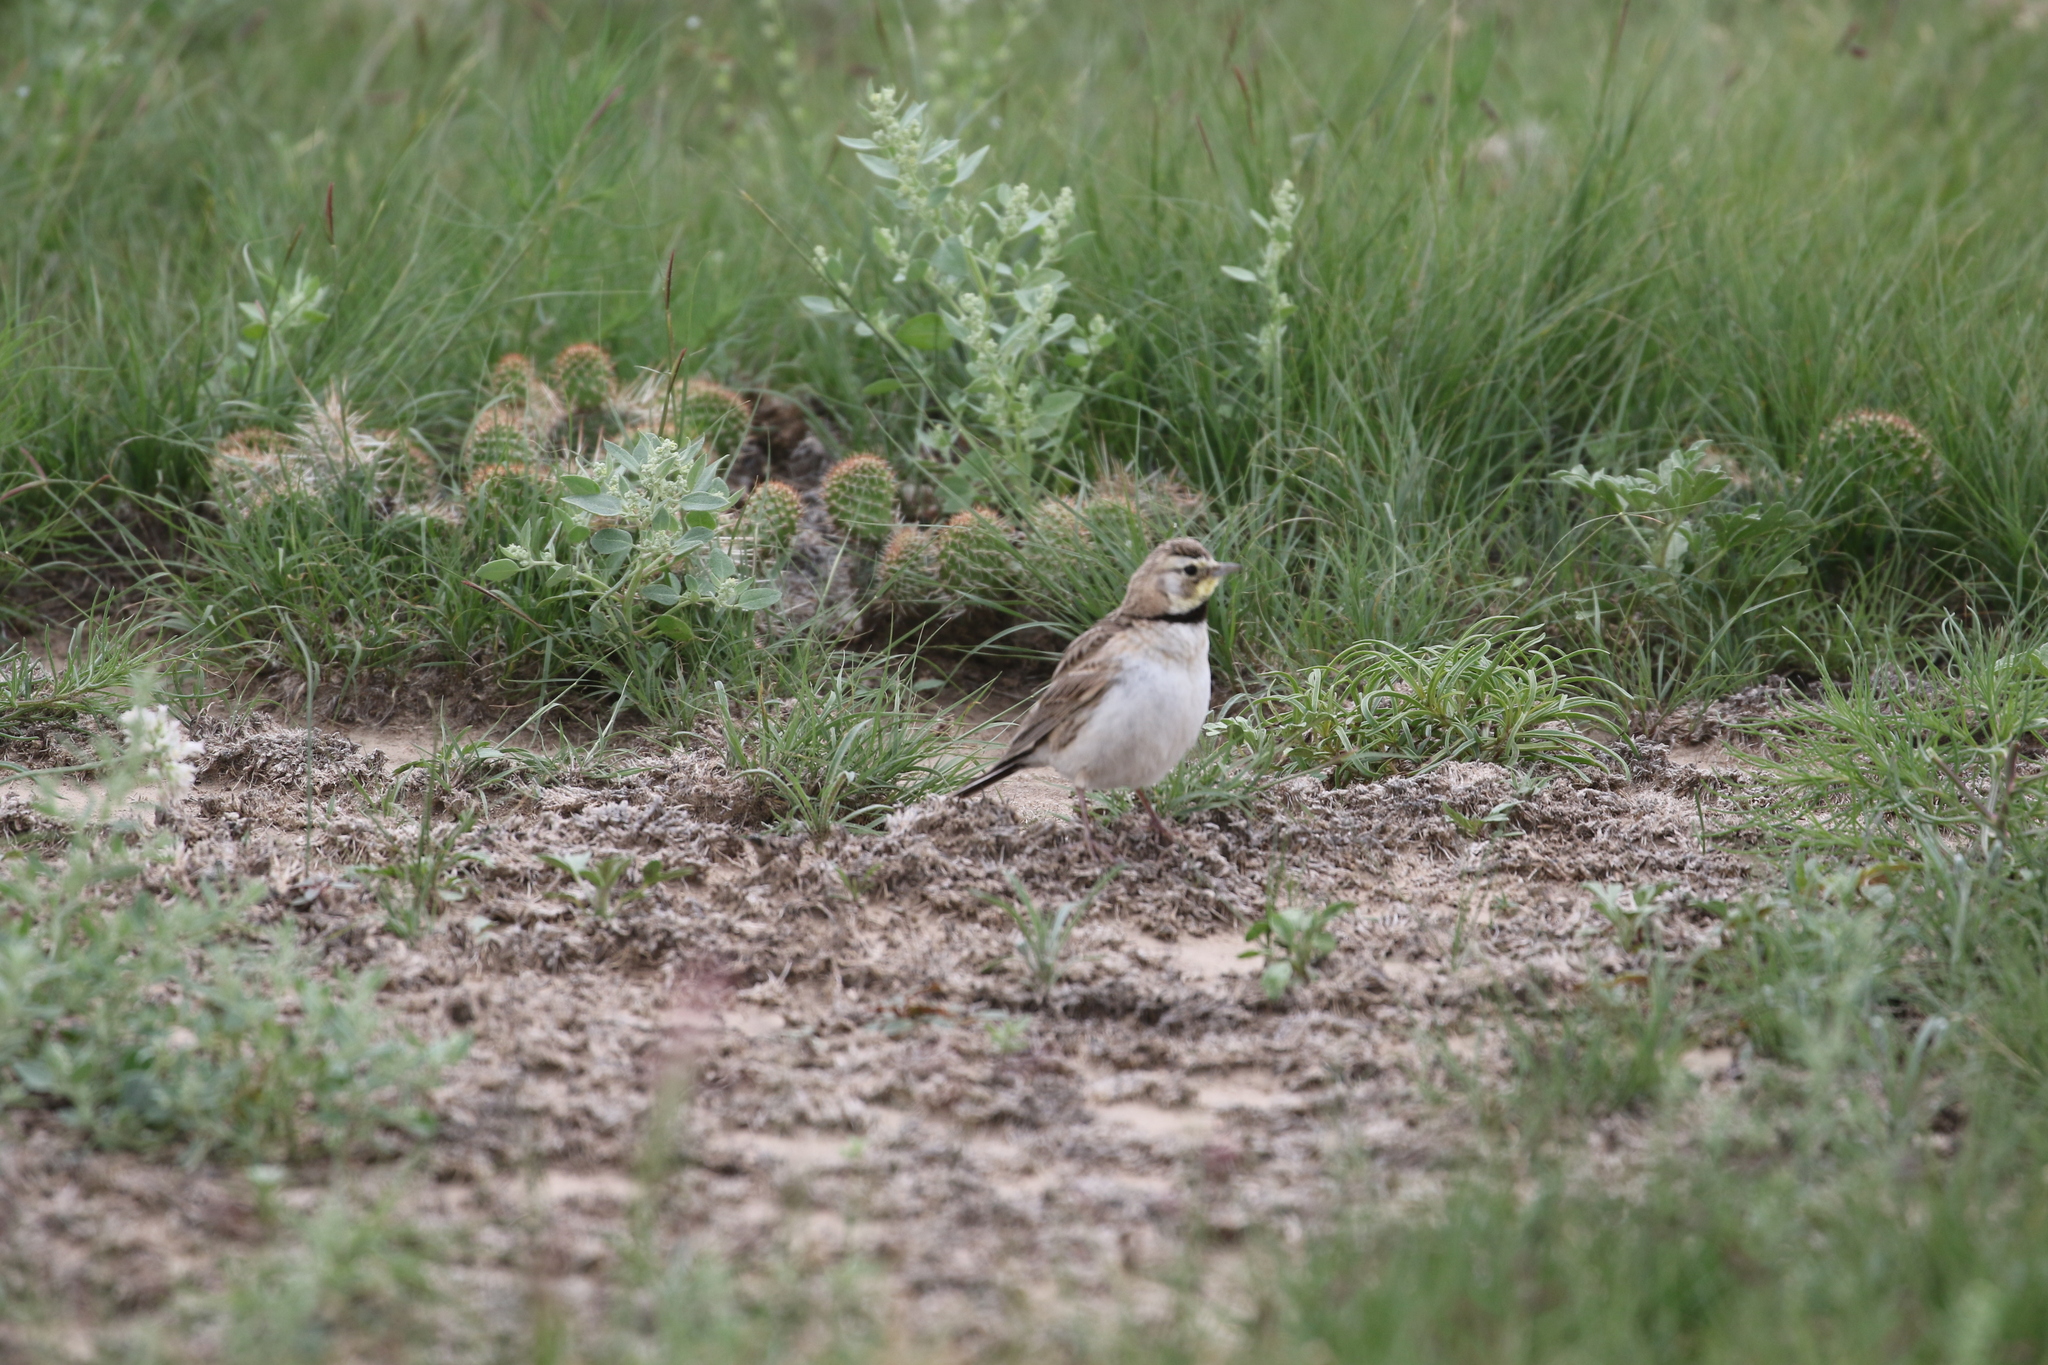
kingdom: Animalia
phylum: Chordata
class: Aves
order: Passeriformes
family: Alaudidae
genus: Eremophila
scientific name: Eremophila alpestris
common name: Horned lark
